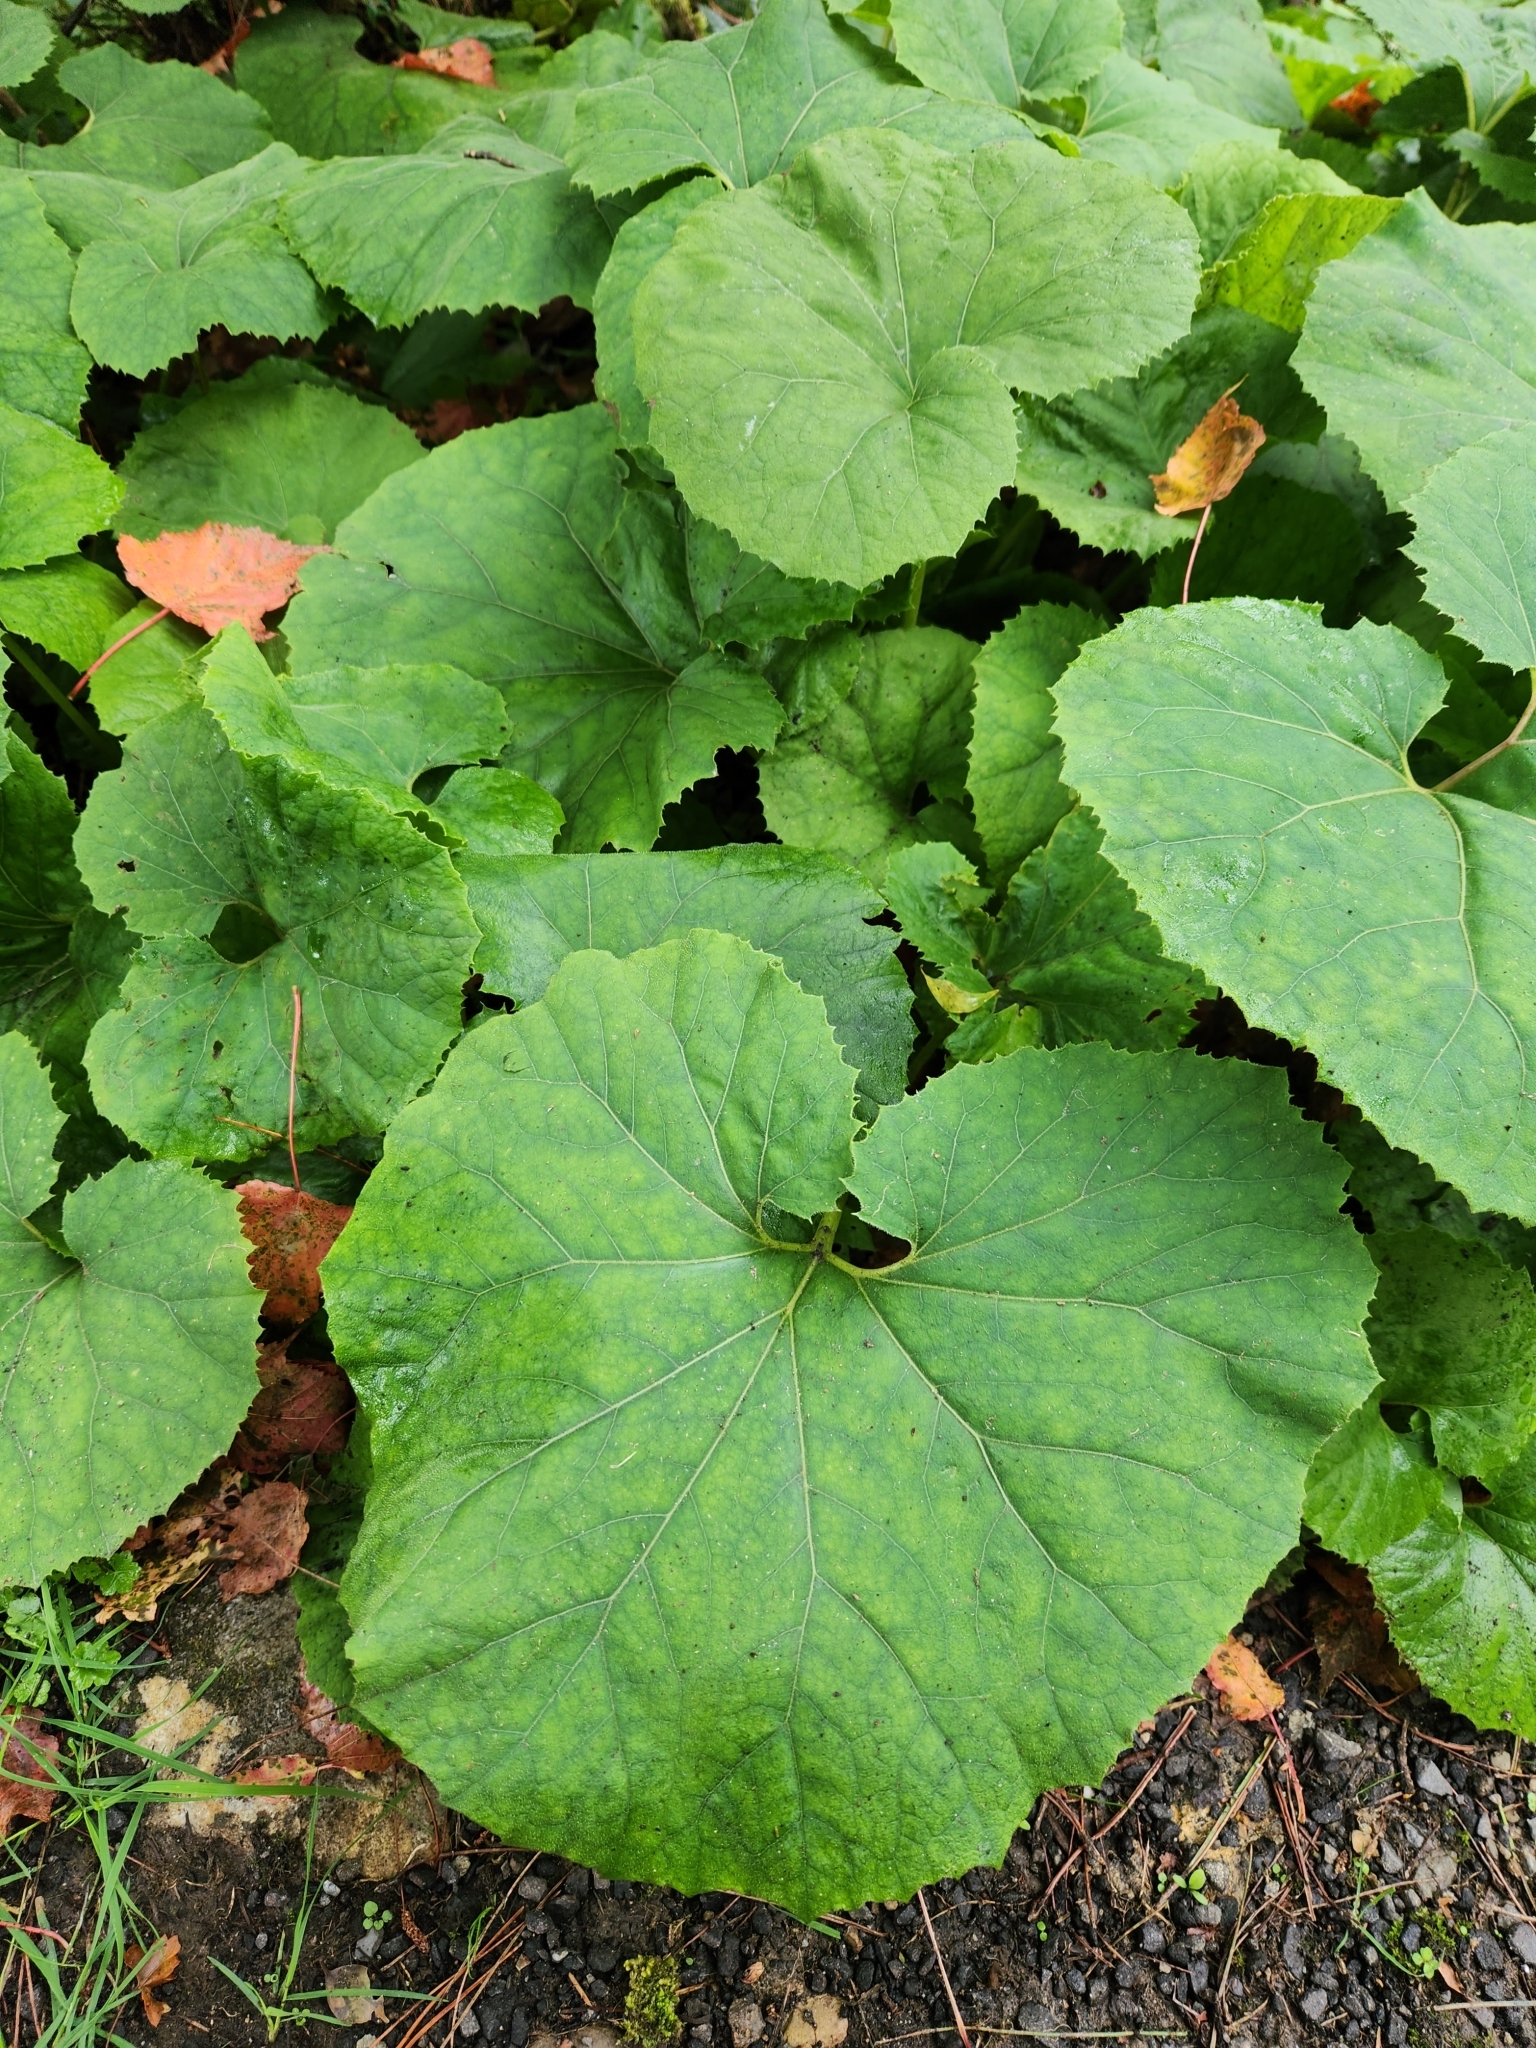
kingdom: Plantae
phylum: Tracheophyta
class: Magnoliopsida
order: Asterales
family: Asteraceae
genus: Petasites
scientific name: Petasites formosanus
